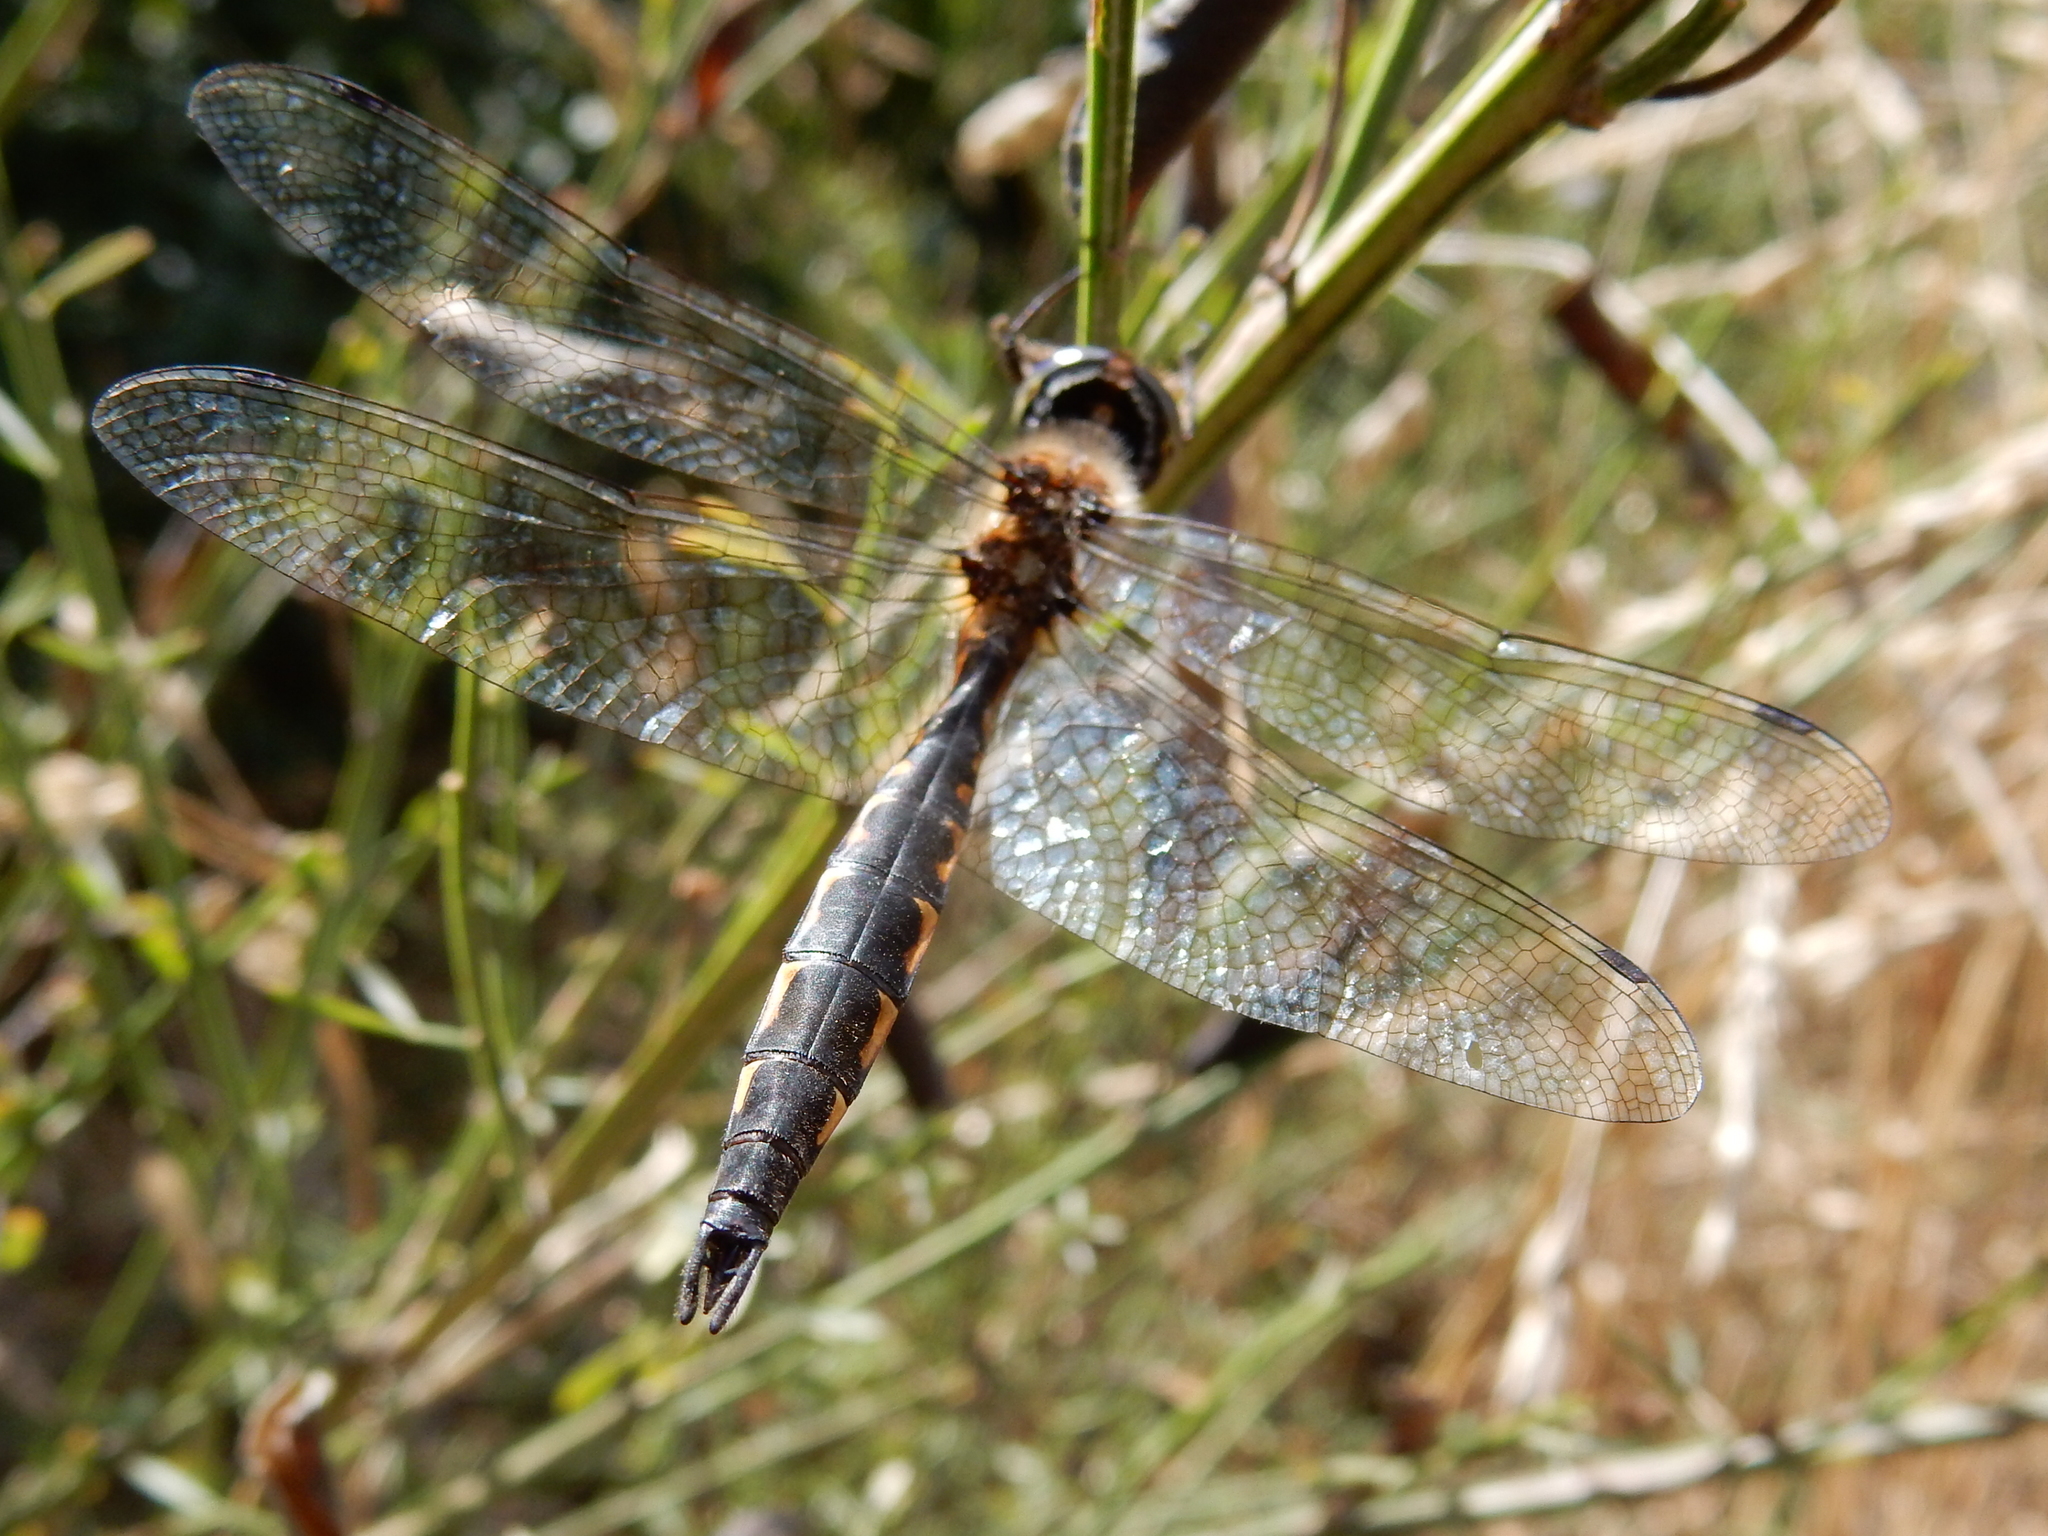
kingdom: Animalia
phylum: Arthropoda
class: Insecta
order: Odonata
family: Corduliidae
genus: Hemicordulia
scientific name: Hemicordulia armstrongi
